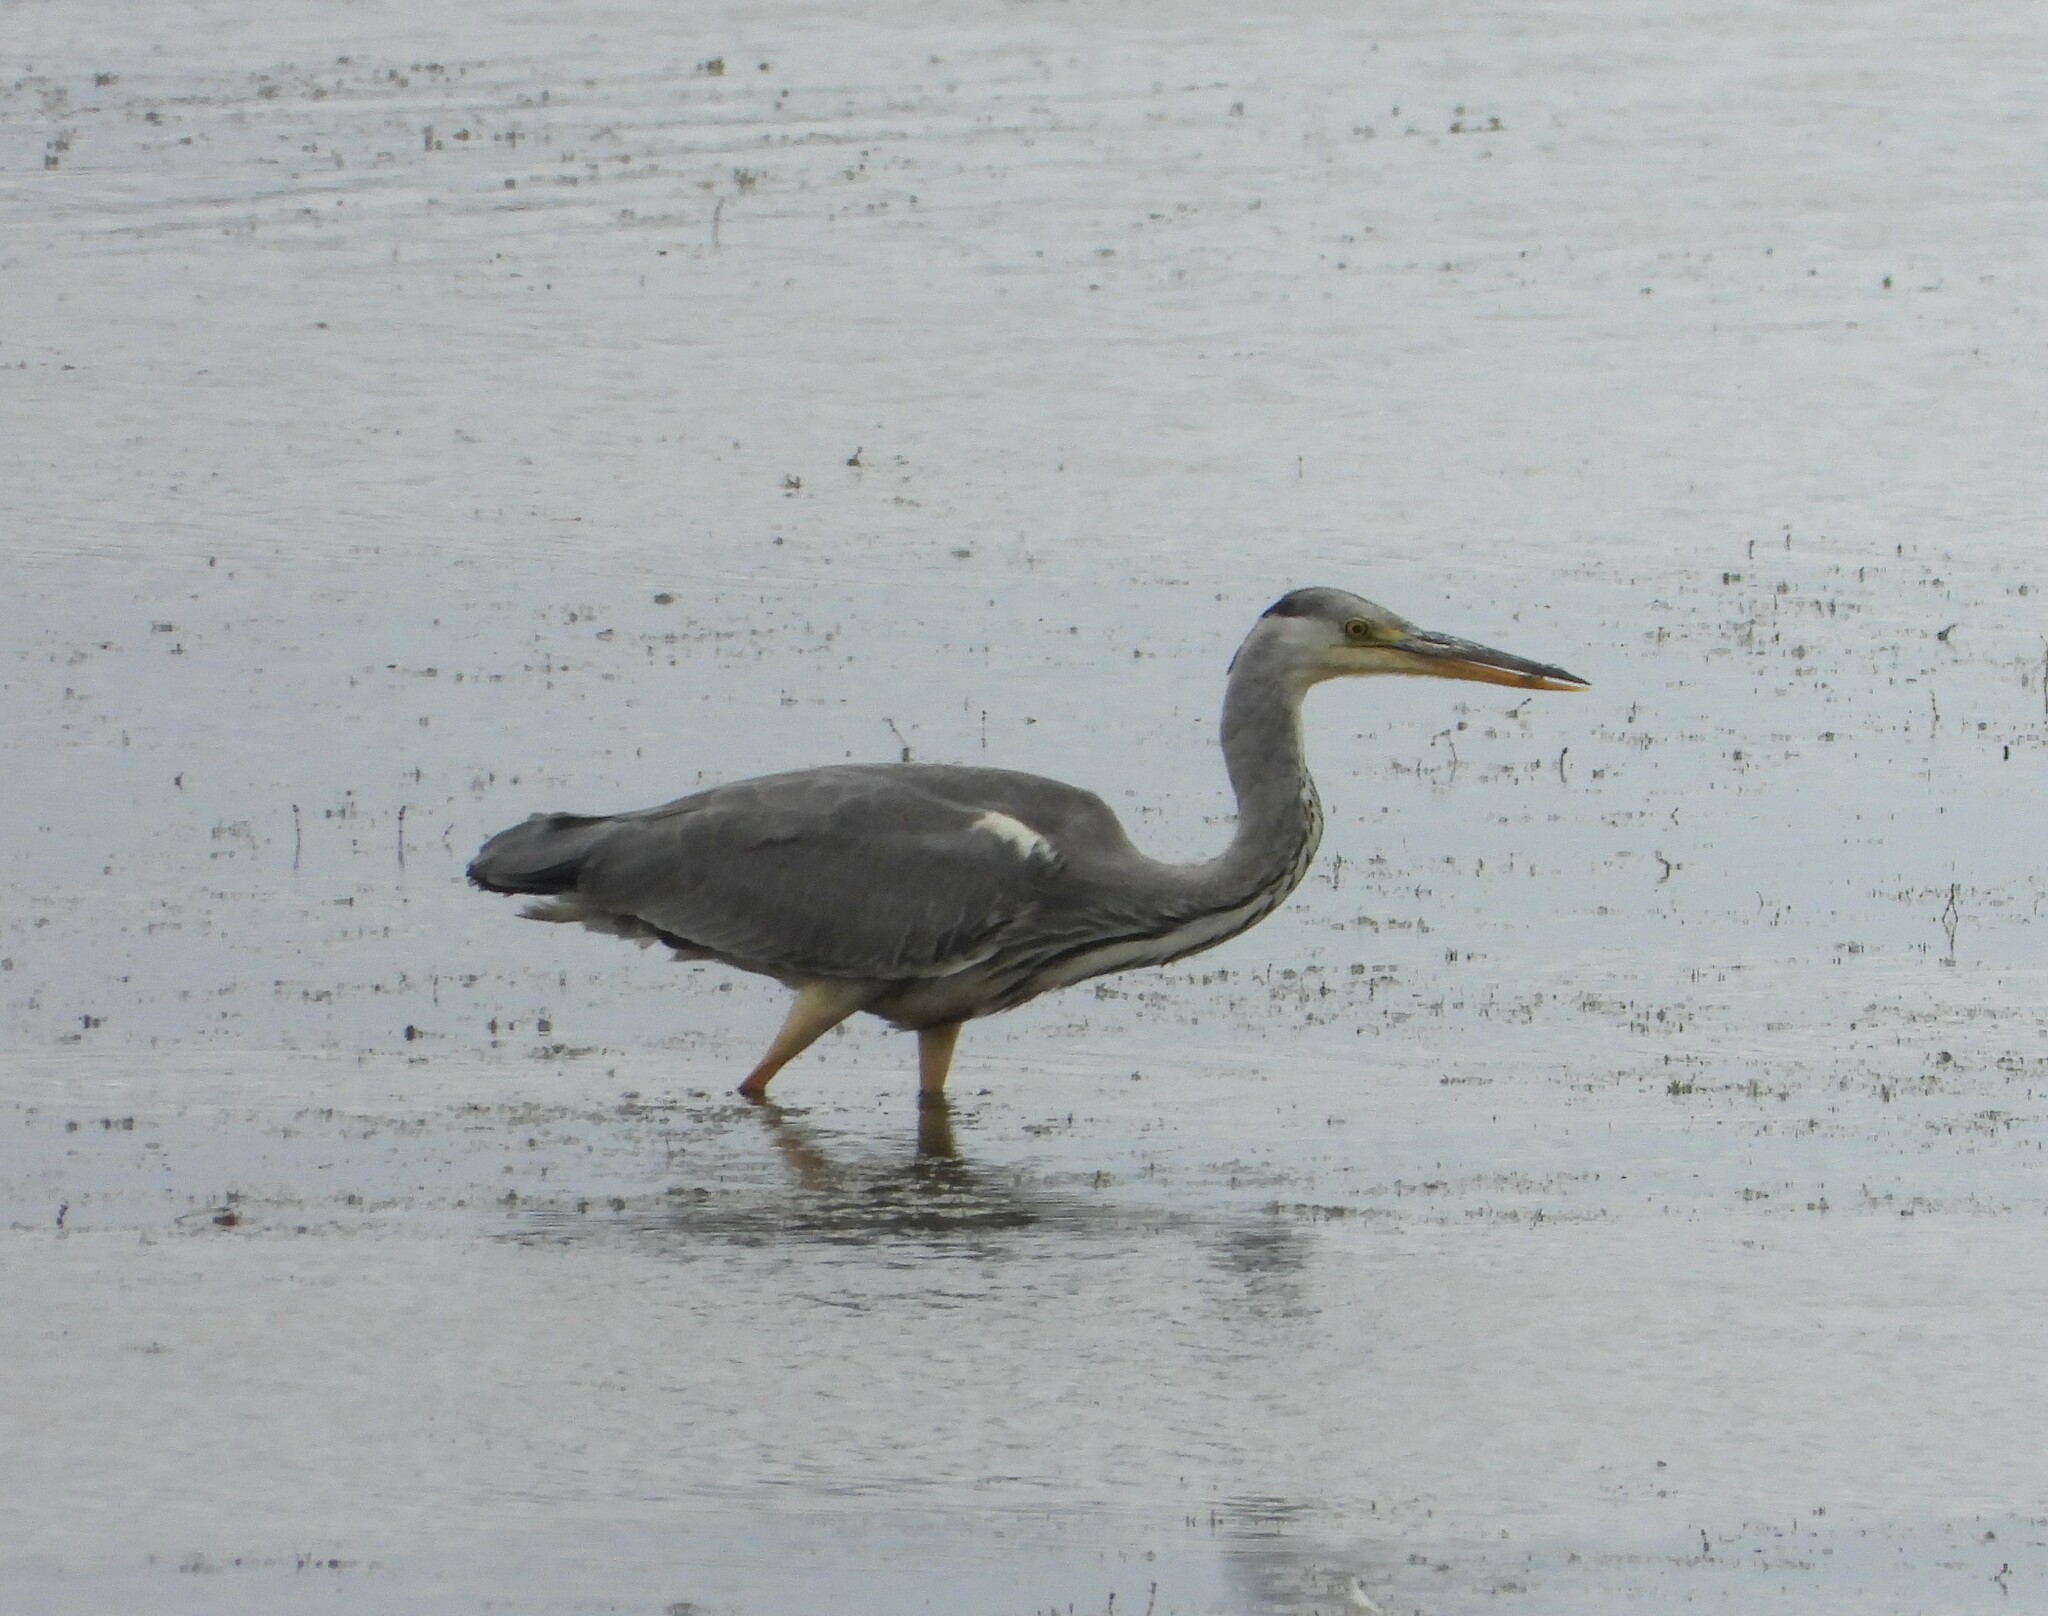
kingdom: Animalia
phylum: Chordata
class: Aves
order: Pelecaniformes
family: Ardeidae
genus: Ardea
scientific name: Ardea cinerea
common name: Grey heron
